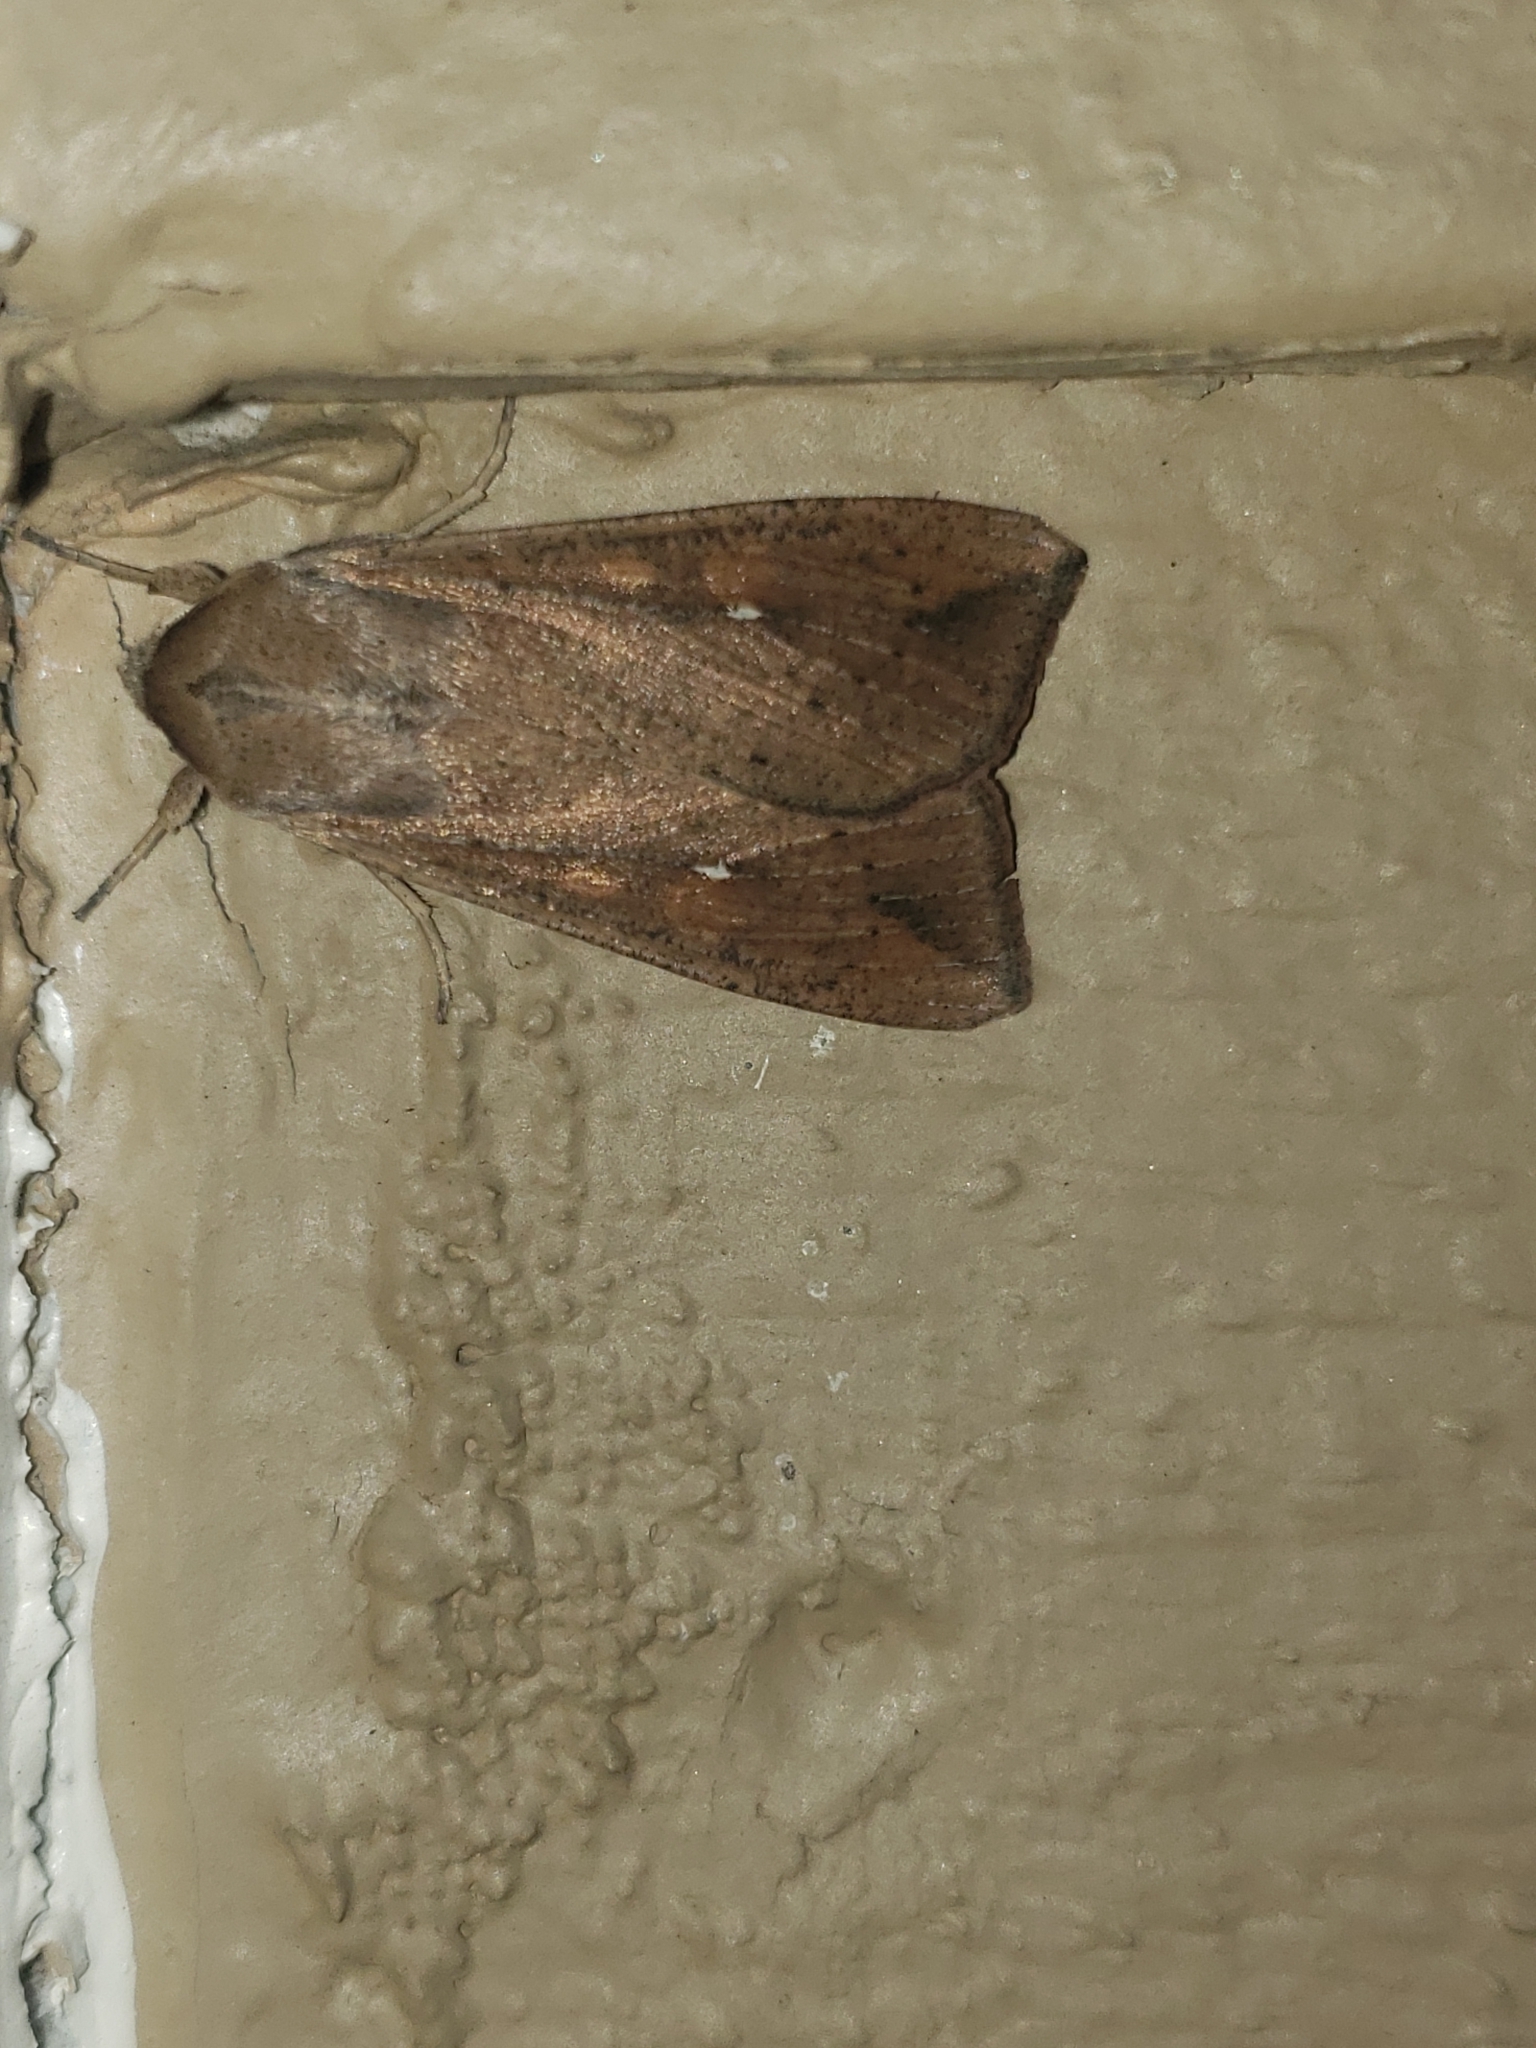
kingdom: Animalia
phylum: Arthropoda
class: Insecta
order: Lepidoptera
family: Noctuidae
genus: Mythimna
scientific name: Mythimna unipuncta
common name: White-speck
